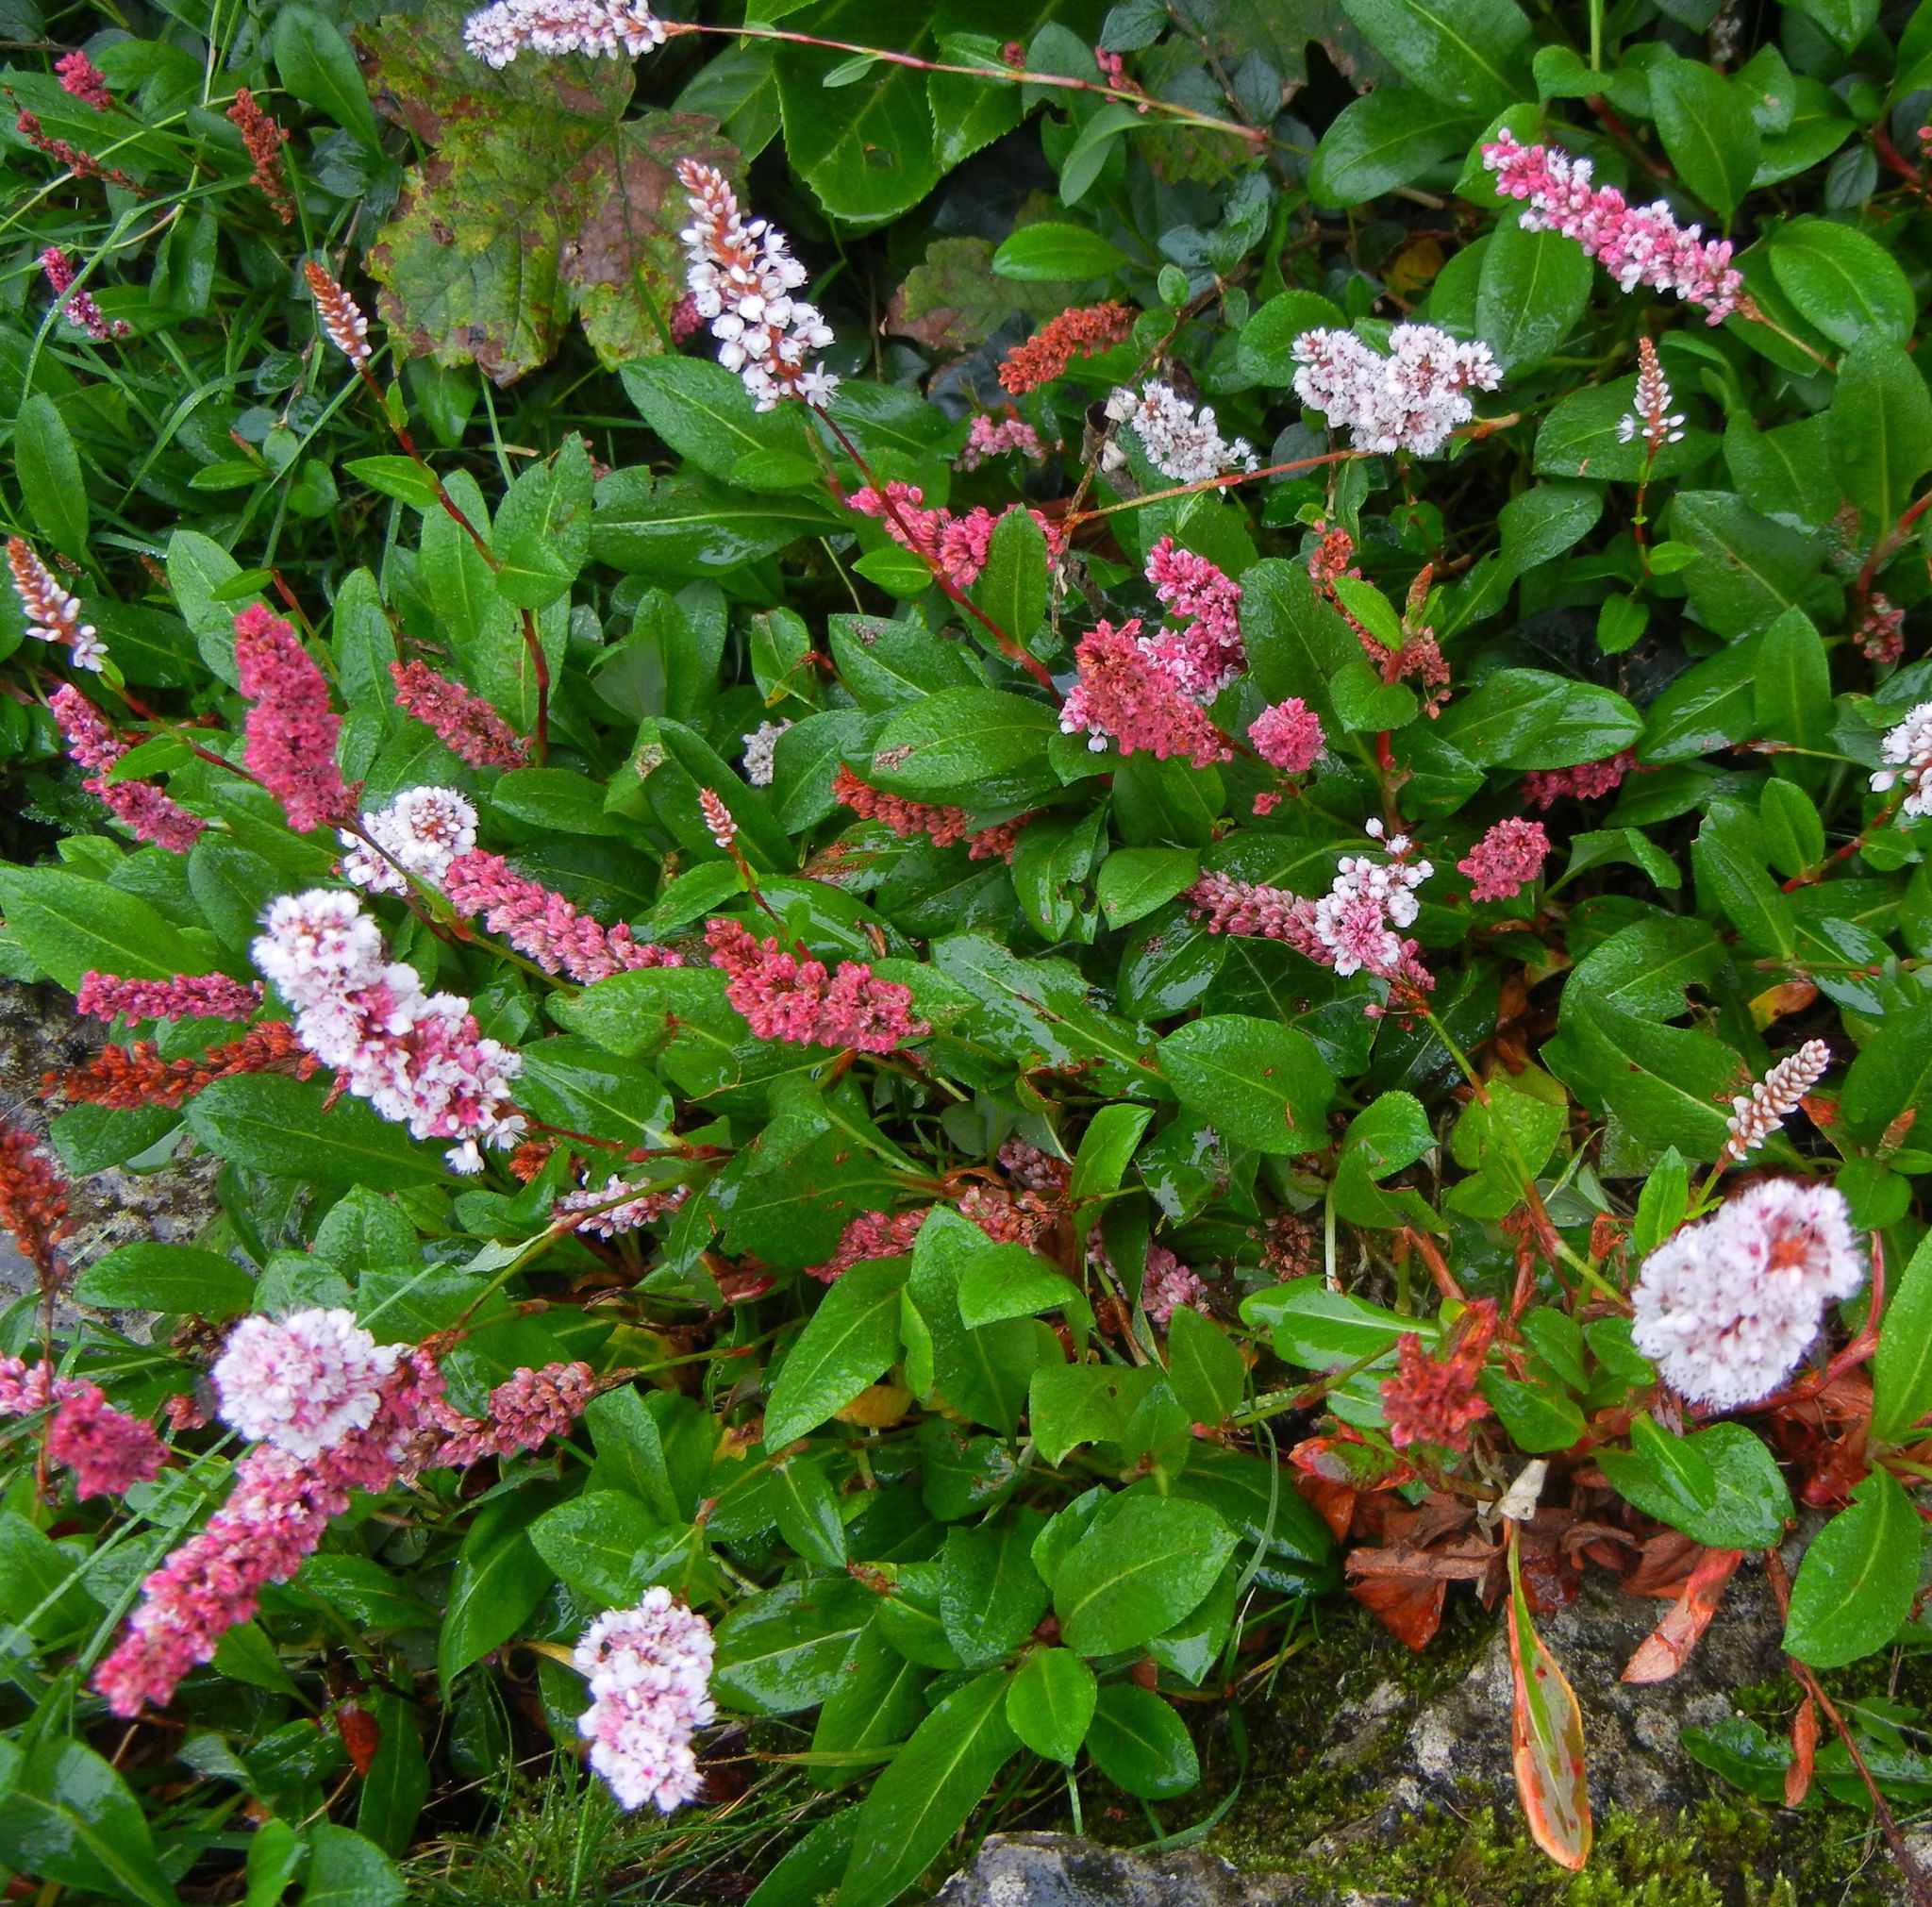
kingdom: Plantae
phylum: Tracheophyta
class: Magnoliopsida
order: Caryophyllales
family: Polygonaceae
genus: Bistorta
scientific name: Bistorta affinis
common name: Himalayan fleeceflower
